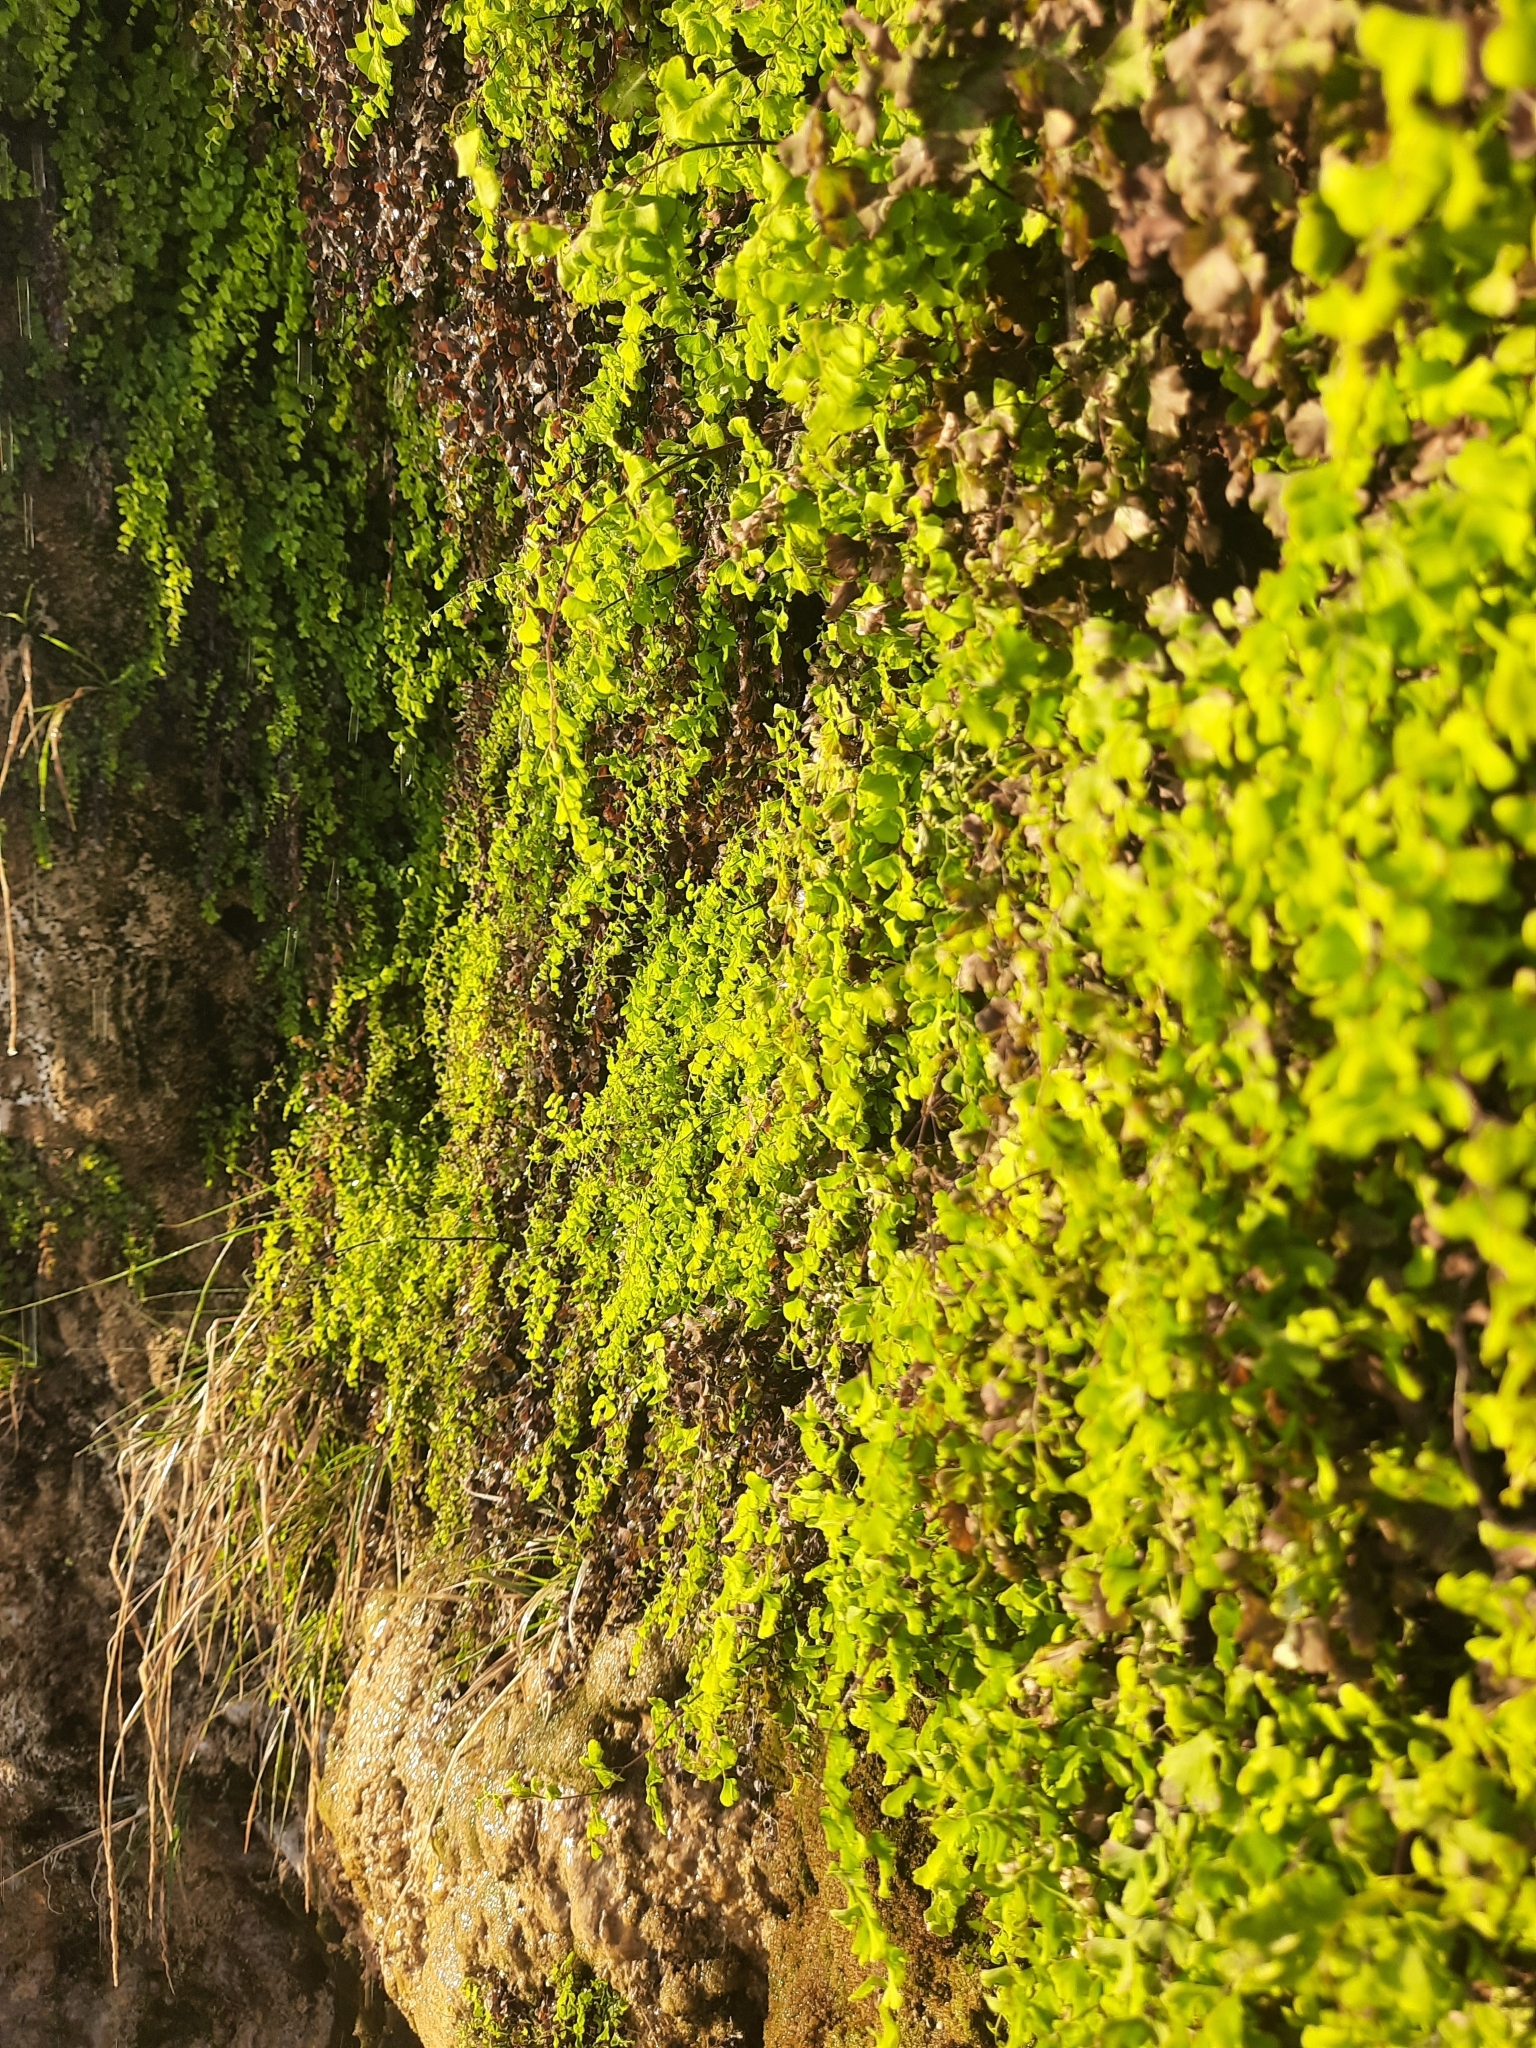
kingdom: Plantae
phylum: Tracheophyta
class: Polypodiopsida
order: Polypodiales
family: Pteridaceae
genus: Adiantum
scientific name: Adiantum capillus-veneris
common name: Maidenhair fern
